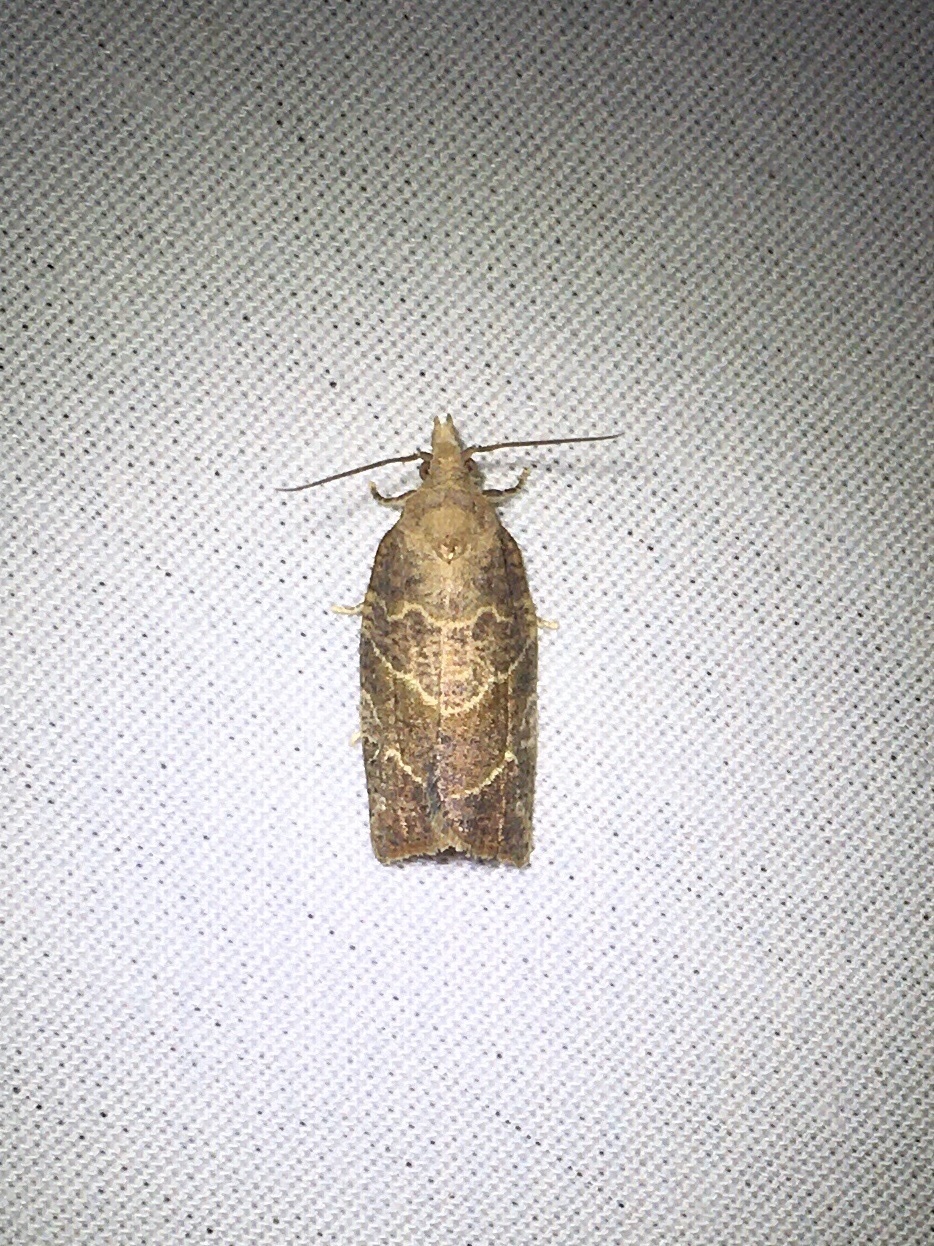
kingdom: Animalia
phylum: Arthropoda
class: Insecta
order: Lepidoptera
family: Tortricidae
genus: Pandemis
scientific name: Pandemis limitata
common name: Three-lined leafroller moth
